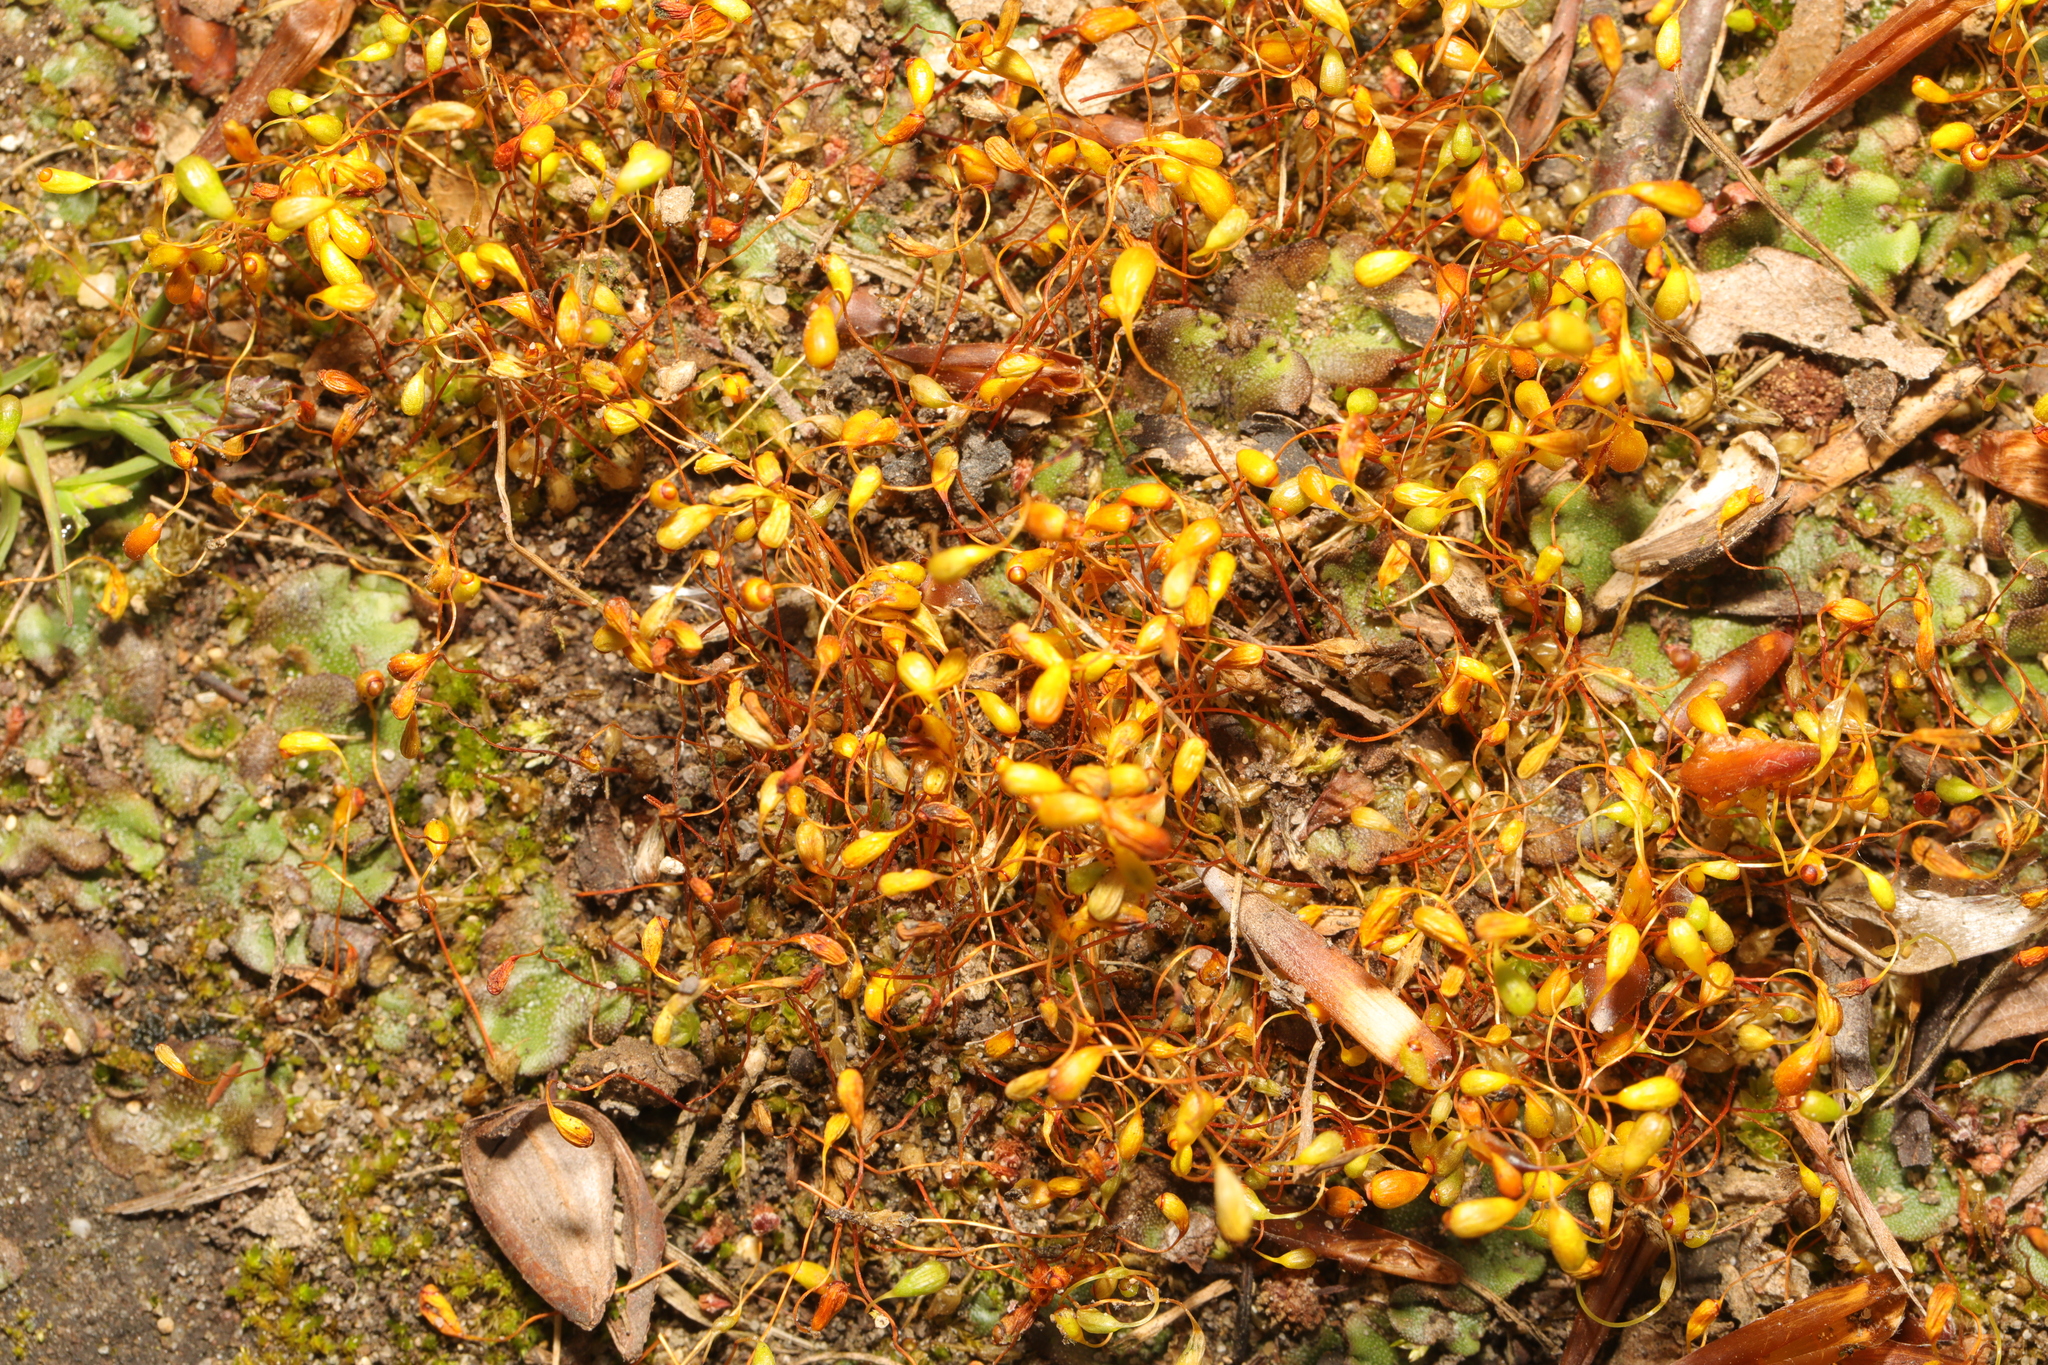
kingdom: Plantae
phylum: Bryophyta
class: Bryopsida
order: Funariales
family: Funariaceae
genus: Funaria
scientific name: Funaria hygrometrica
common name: Common cord moss
